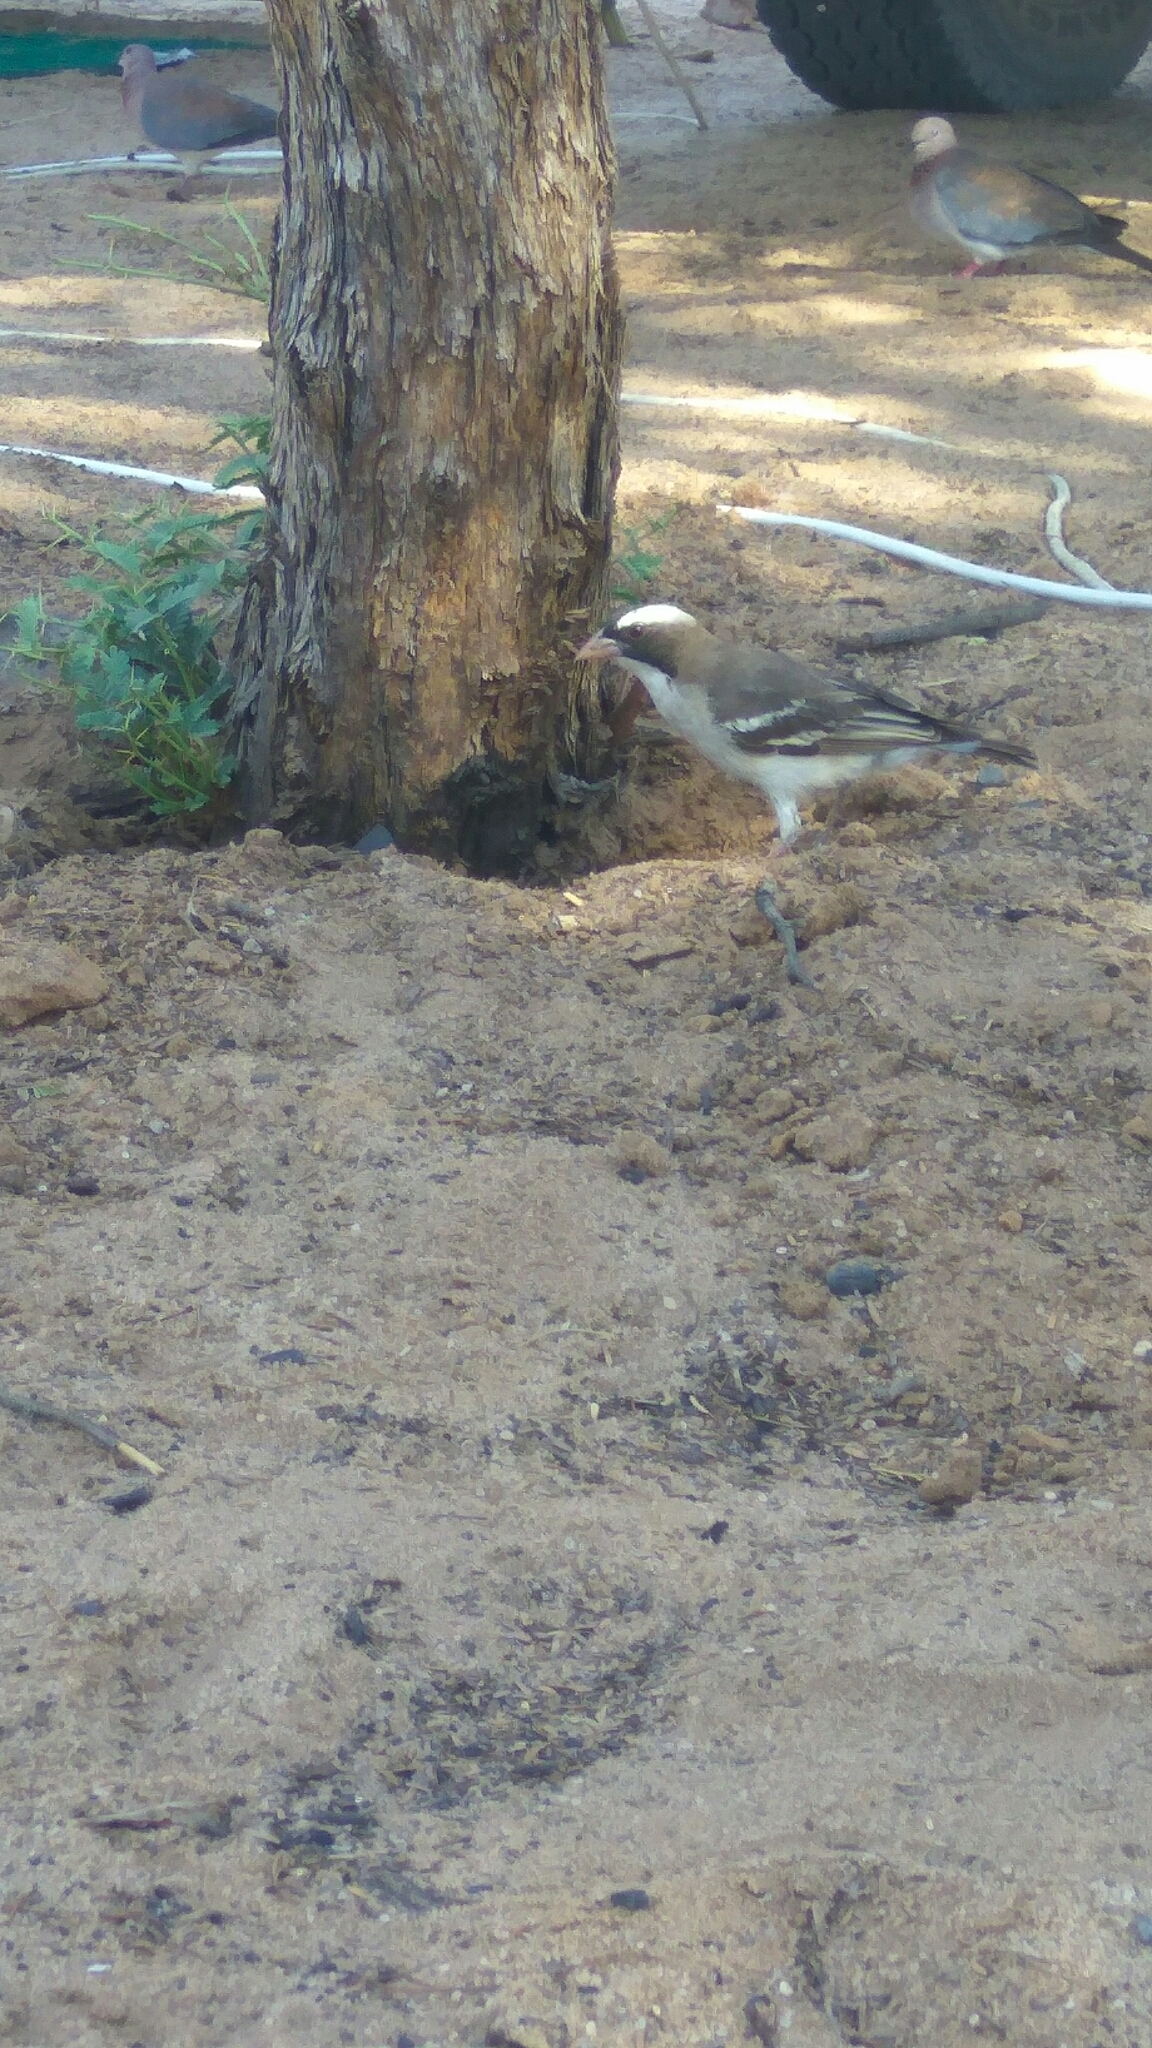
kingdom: Animalia
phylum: Chordata
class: Aves
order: Passeriformes
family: Passeridae
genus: Plocepasser
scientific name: Plocepasser mahali
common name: White-browed sparrow-weaver
